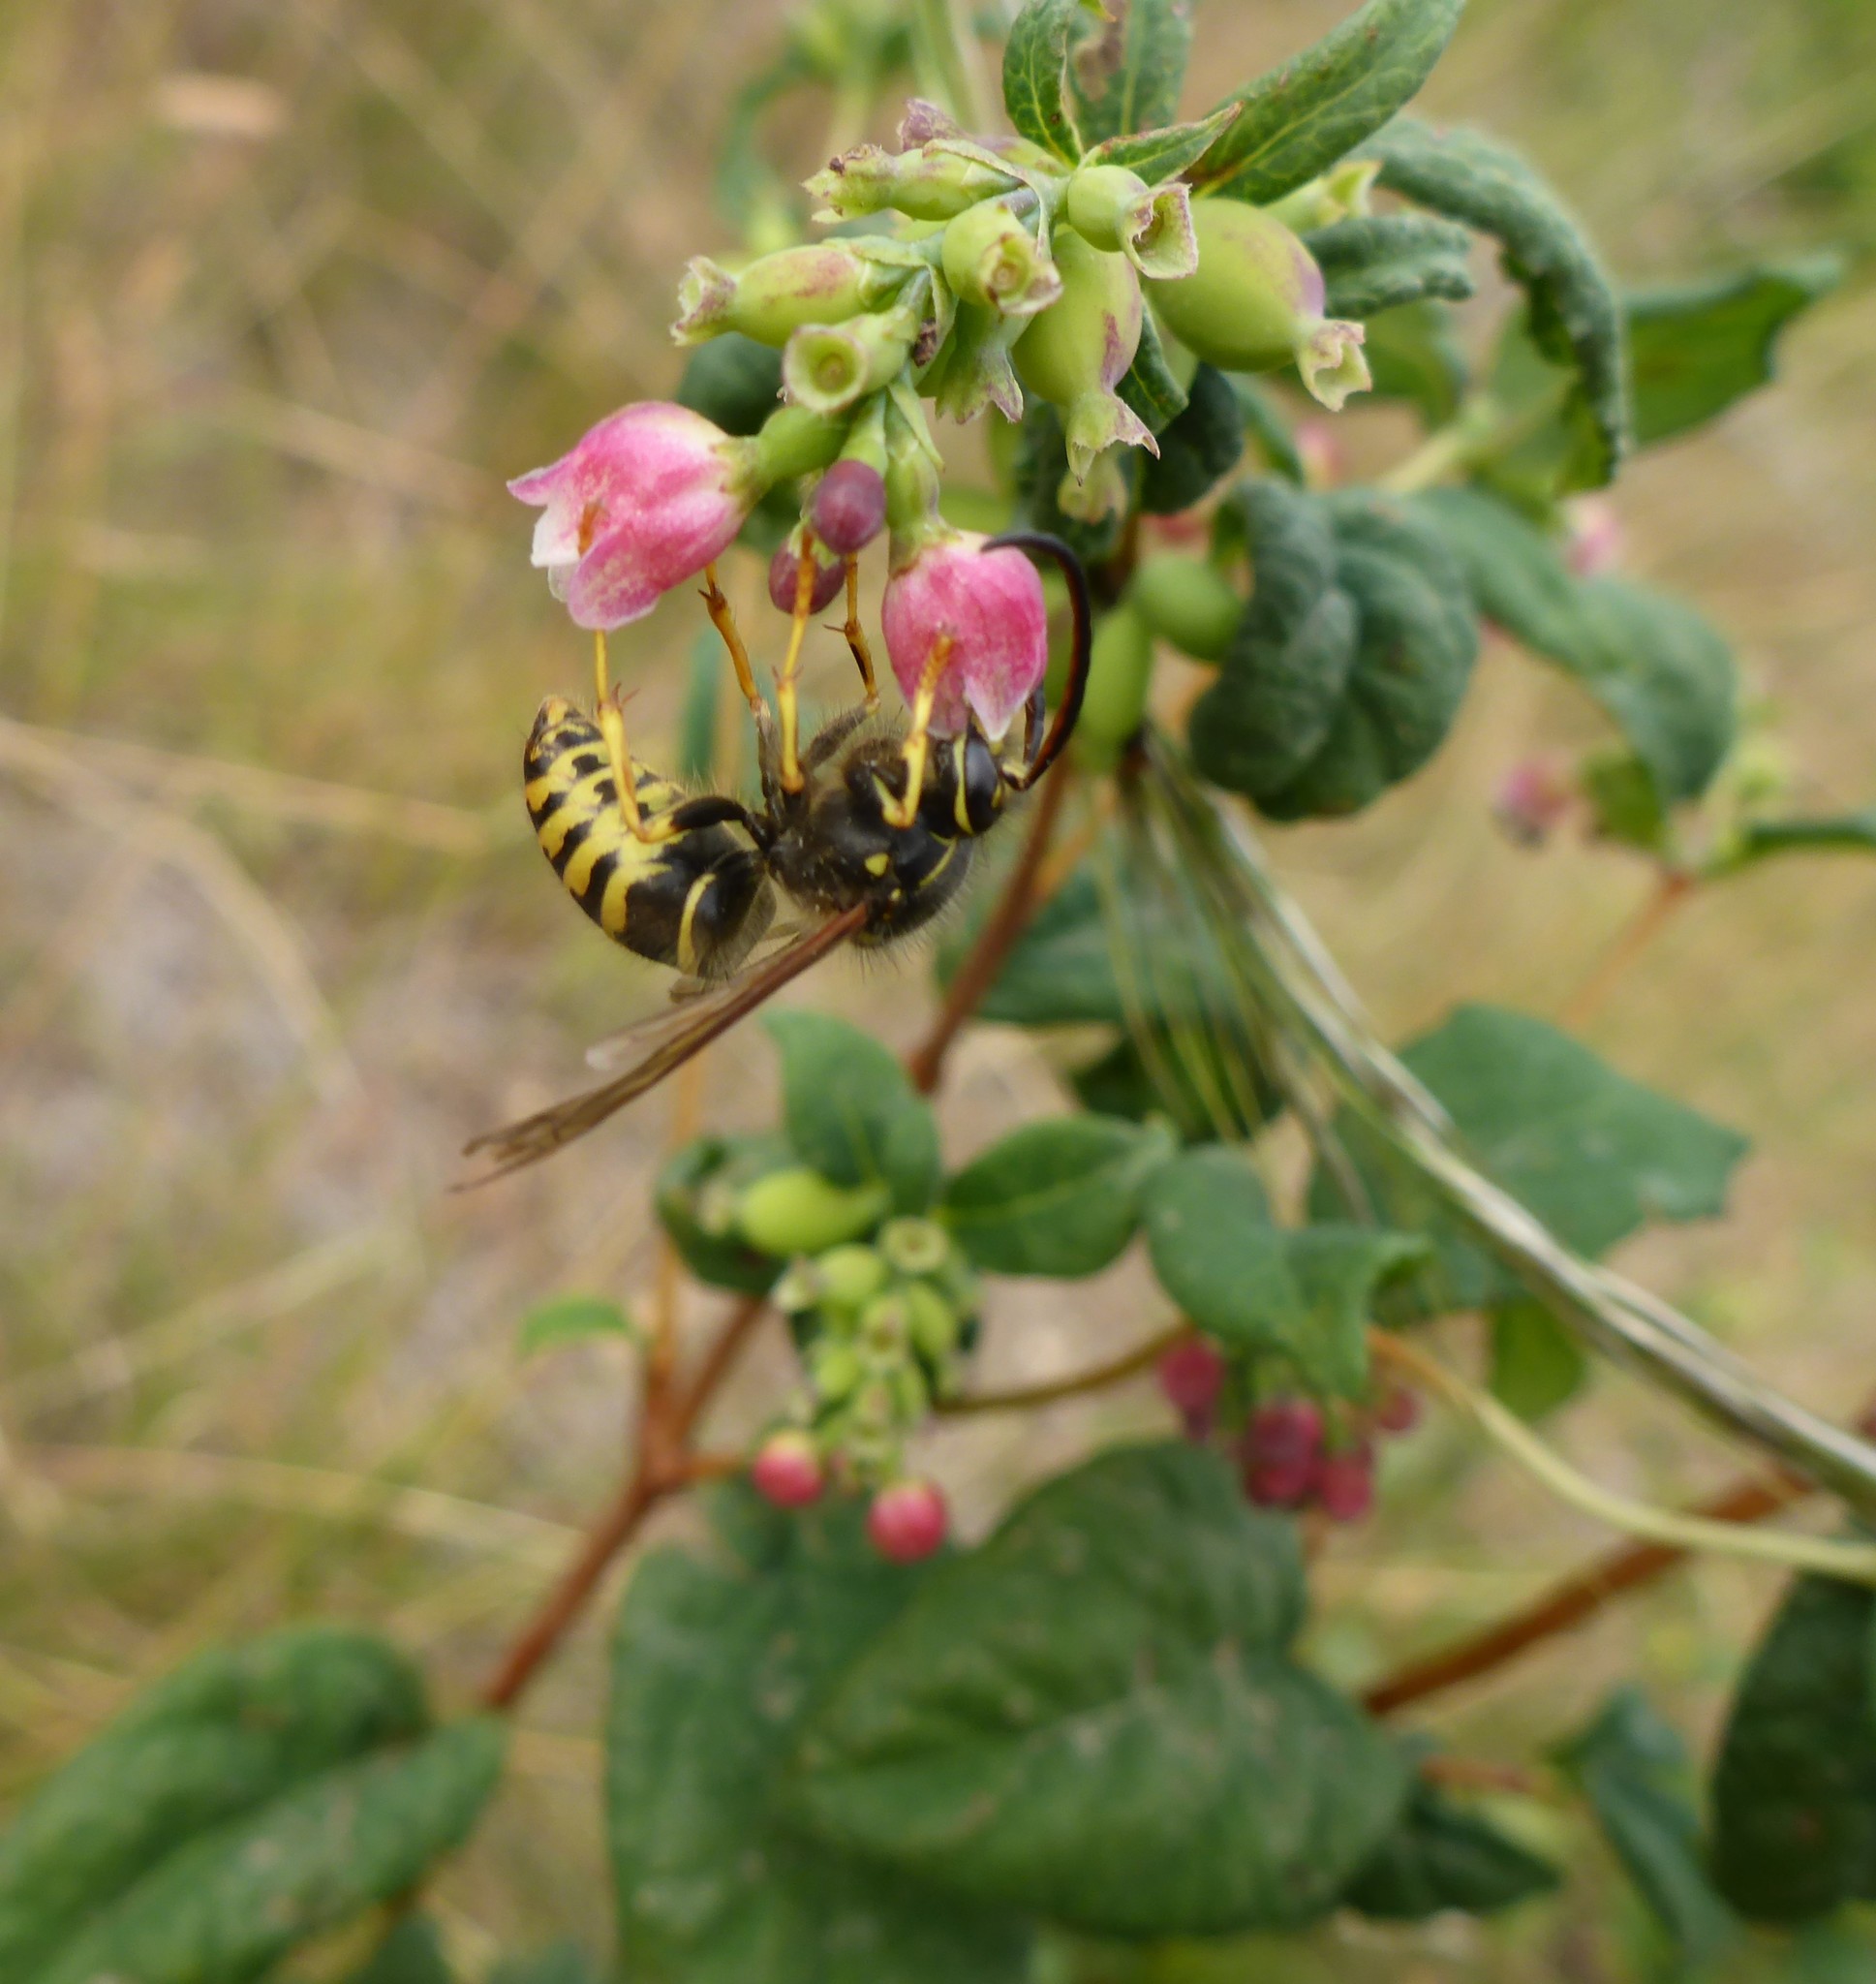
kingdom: Animalia
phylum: Arthropoda
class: Insecta
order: Hymenoptera
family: Vespidae
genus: Dolichovespula
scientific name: Dolichovespula arenaria
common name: Aerial yellowjacket
